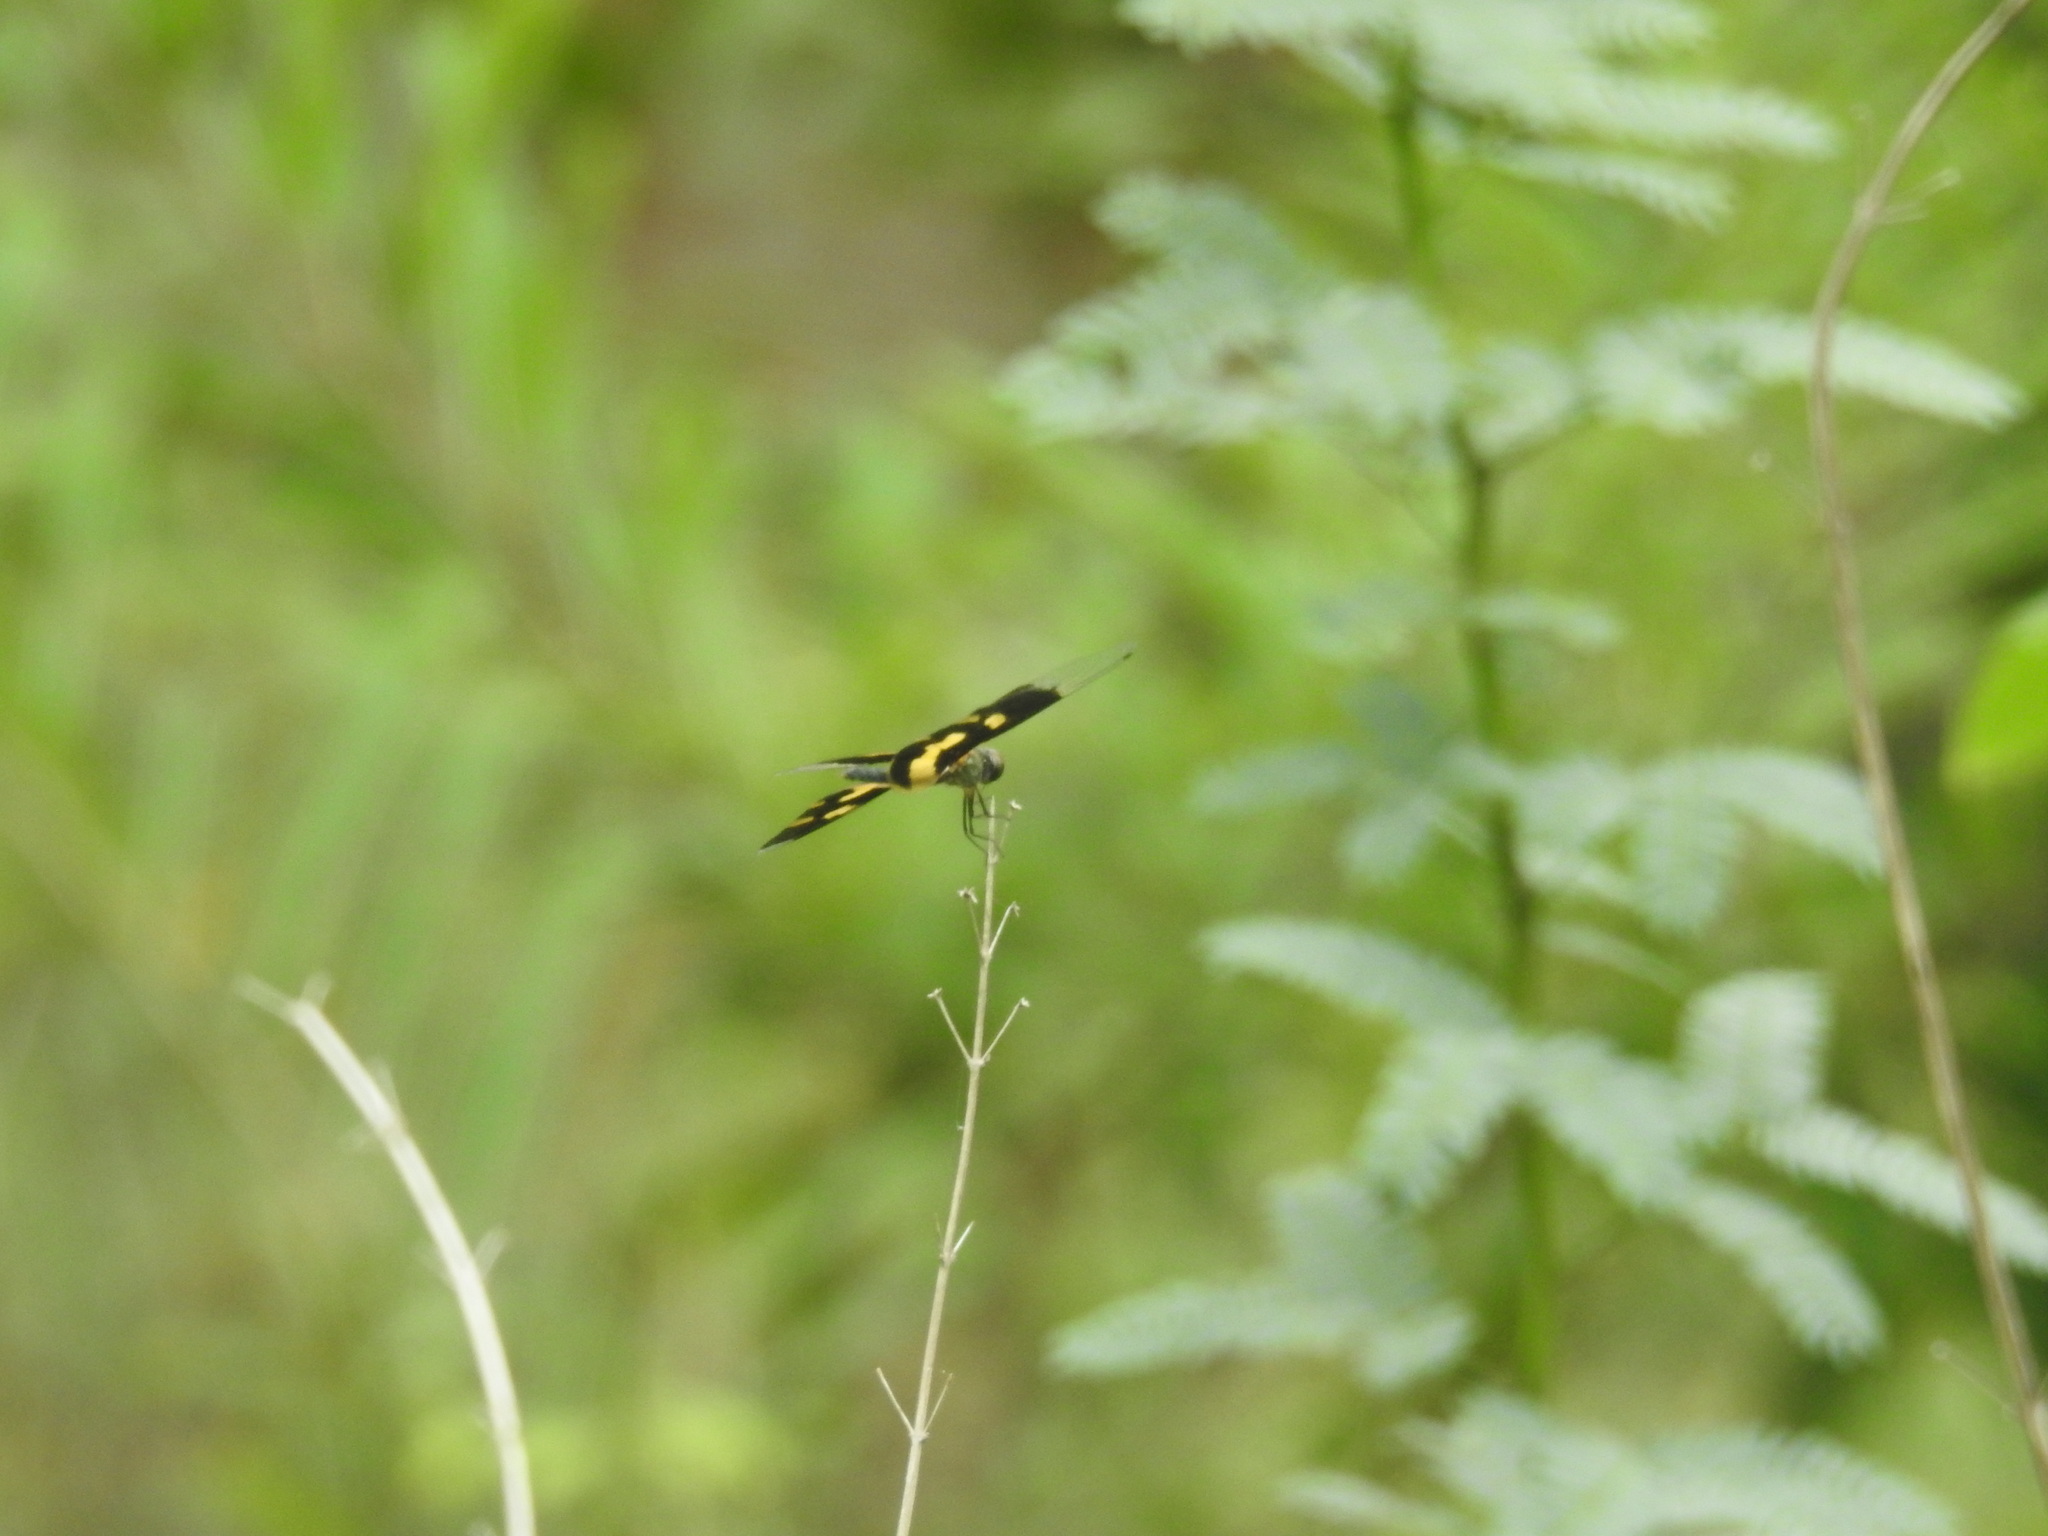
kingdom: Animalia
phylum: Arthropoda
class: Insecta
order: Odonata
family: Libellulidae
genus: Rhyothemis
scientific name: Rhyothemis variegata
